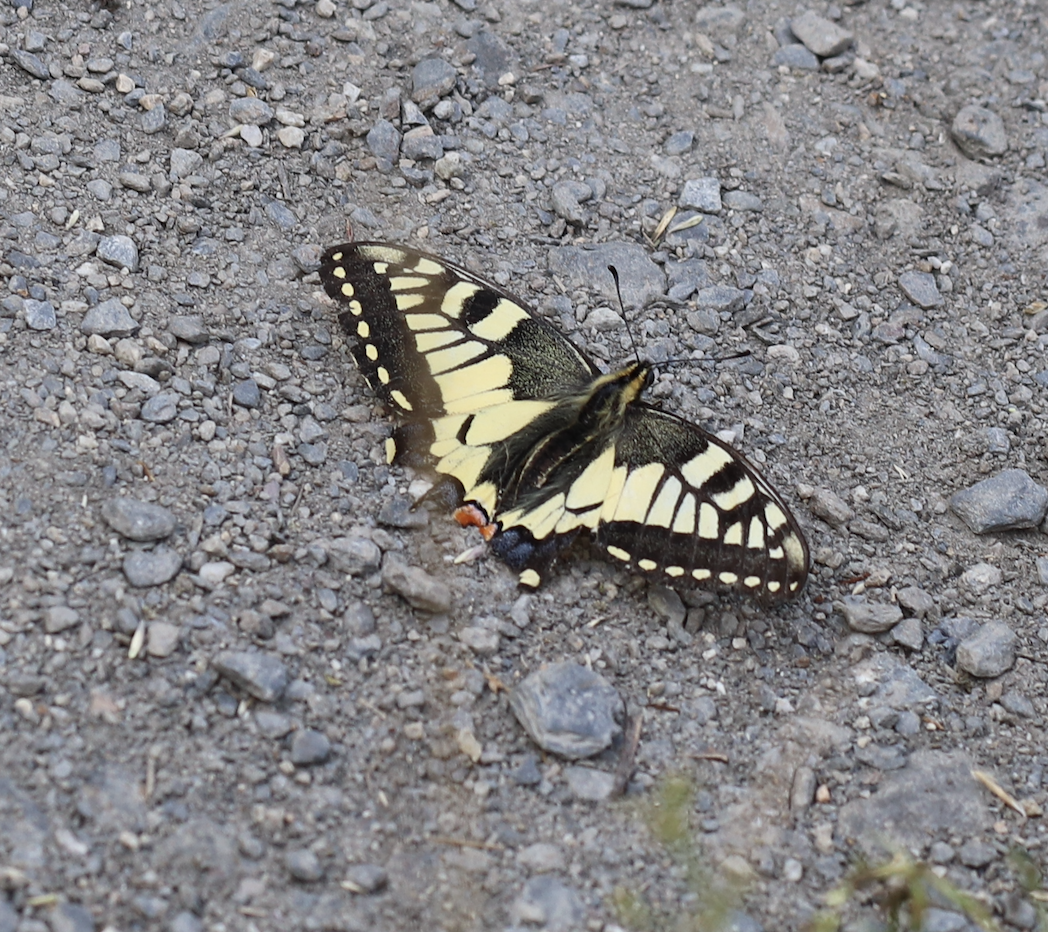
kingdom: Animalia
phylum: Arthropoda
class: Insecta
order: Lepidoptera
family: Papilionidae
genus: Papilio
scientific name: Papilio machaon
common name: Swallowtail
